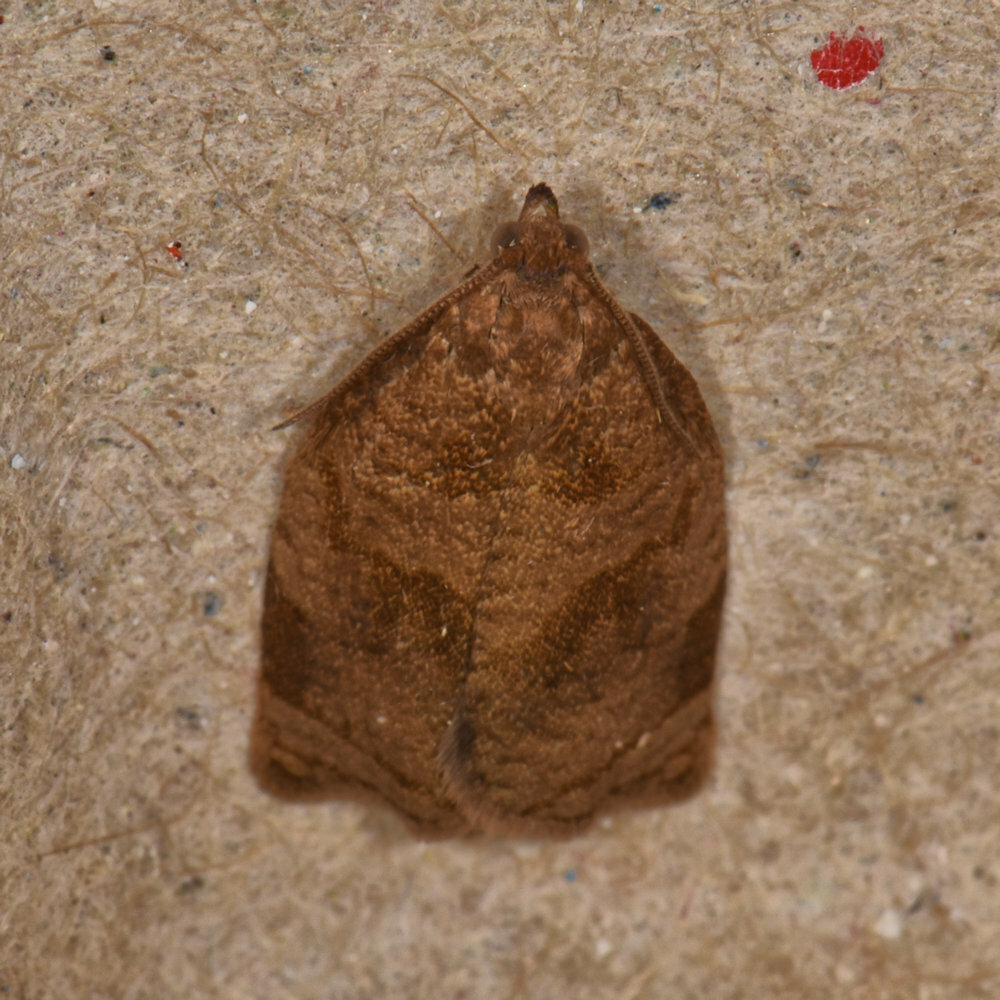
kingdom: Animalia
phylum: Arthropoda
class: Insecta
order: Lepidoptera
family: Tortricidae
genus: Choristoneura
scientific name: Choristoneura rosaceana
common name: Oblique-banded leafroller moth
